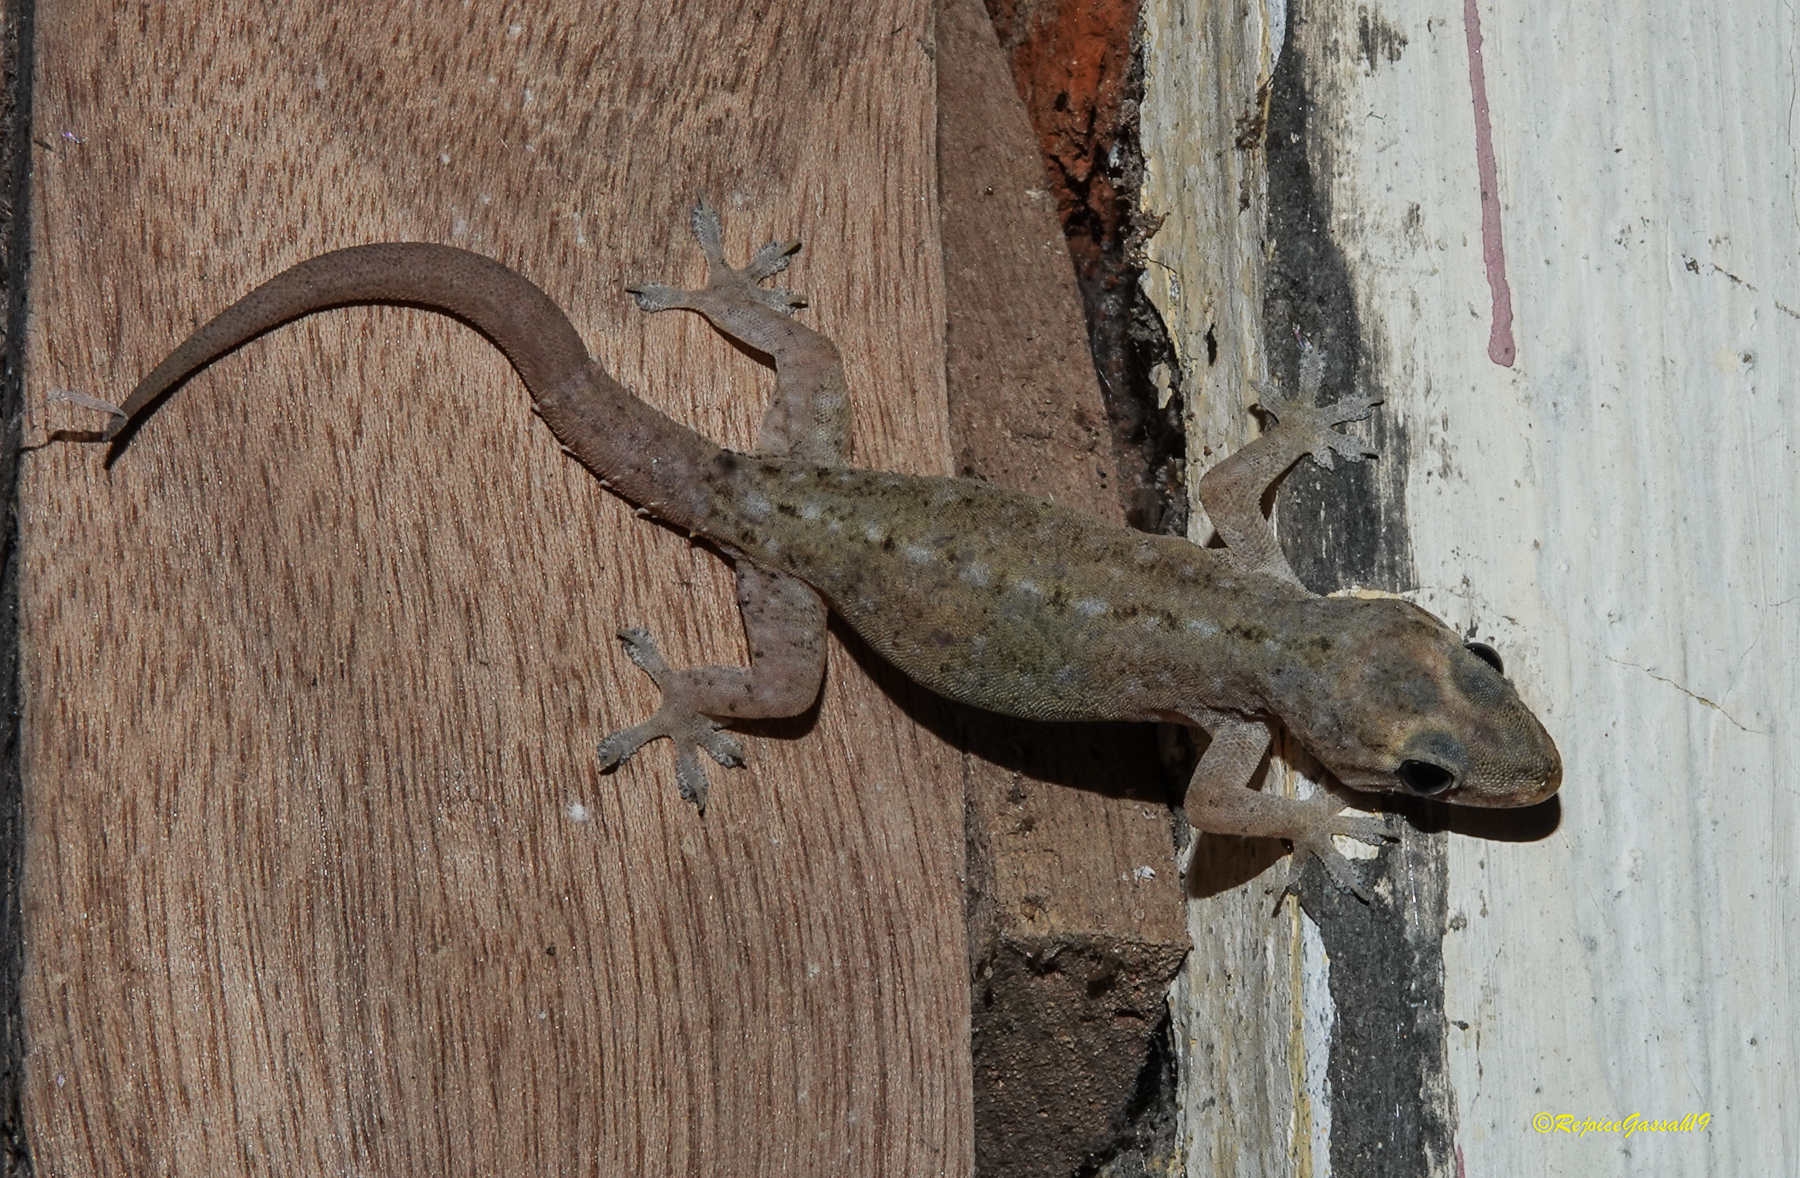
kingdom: Animalia
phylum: Chordata
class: Squamata
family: Gekkonidae
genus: Hemidactylus
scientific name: Hemidactylus frenatus
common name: Common house gecko
